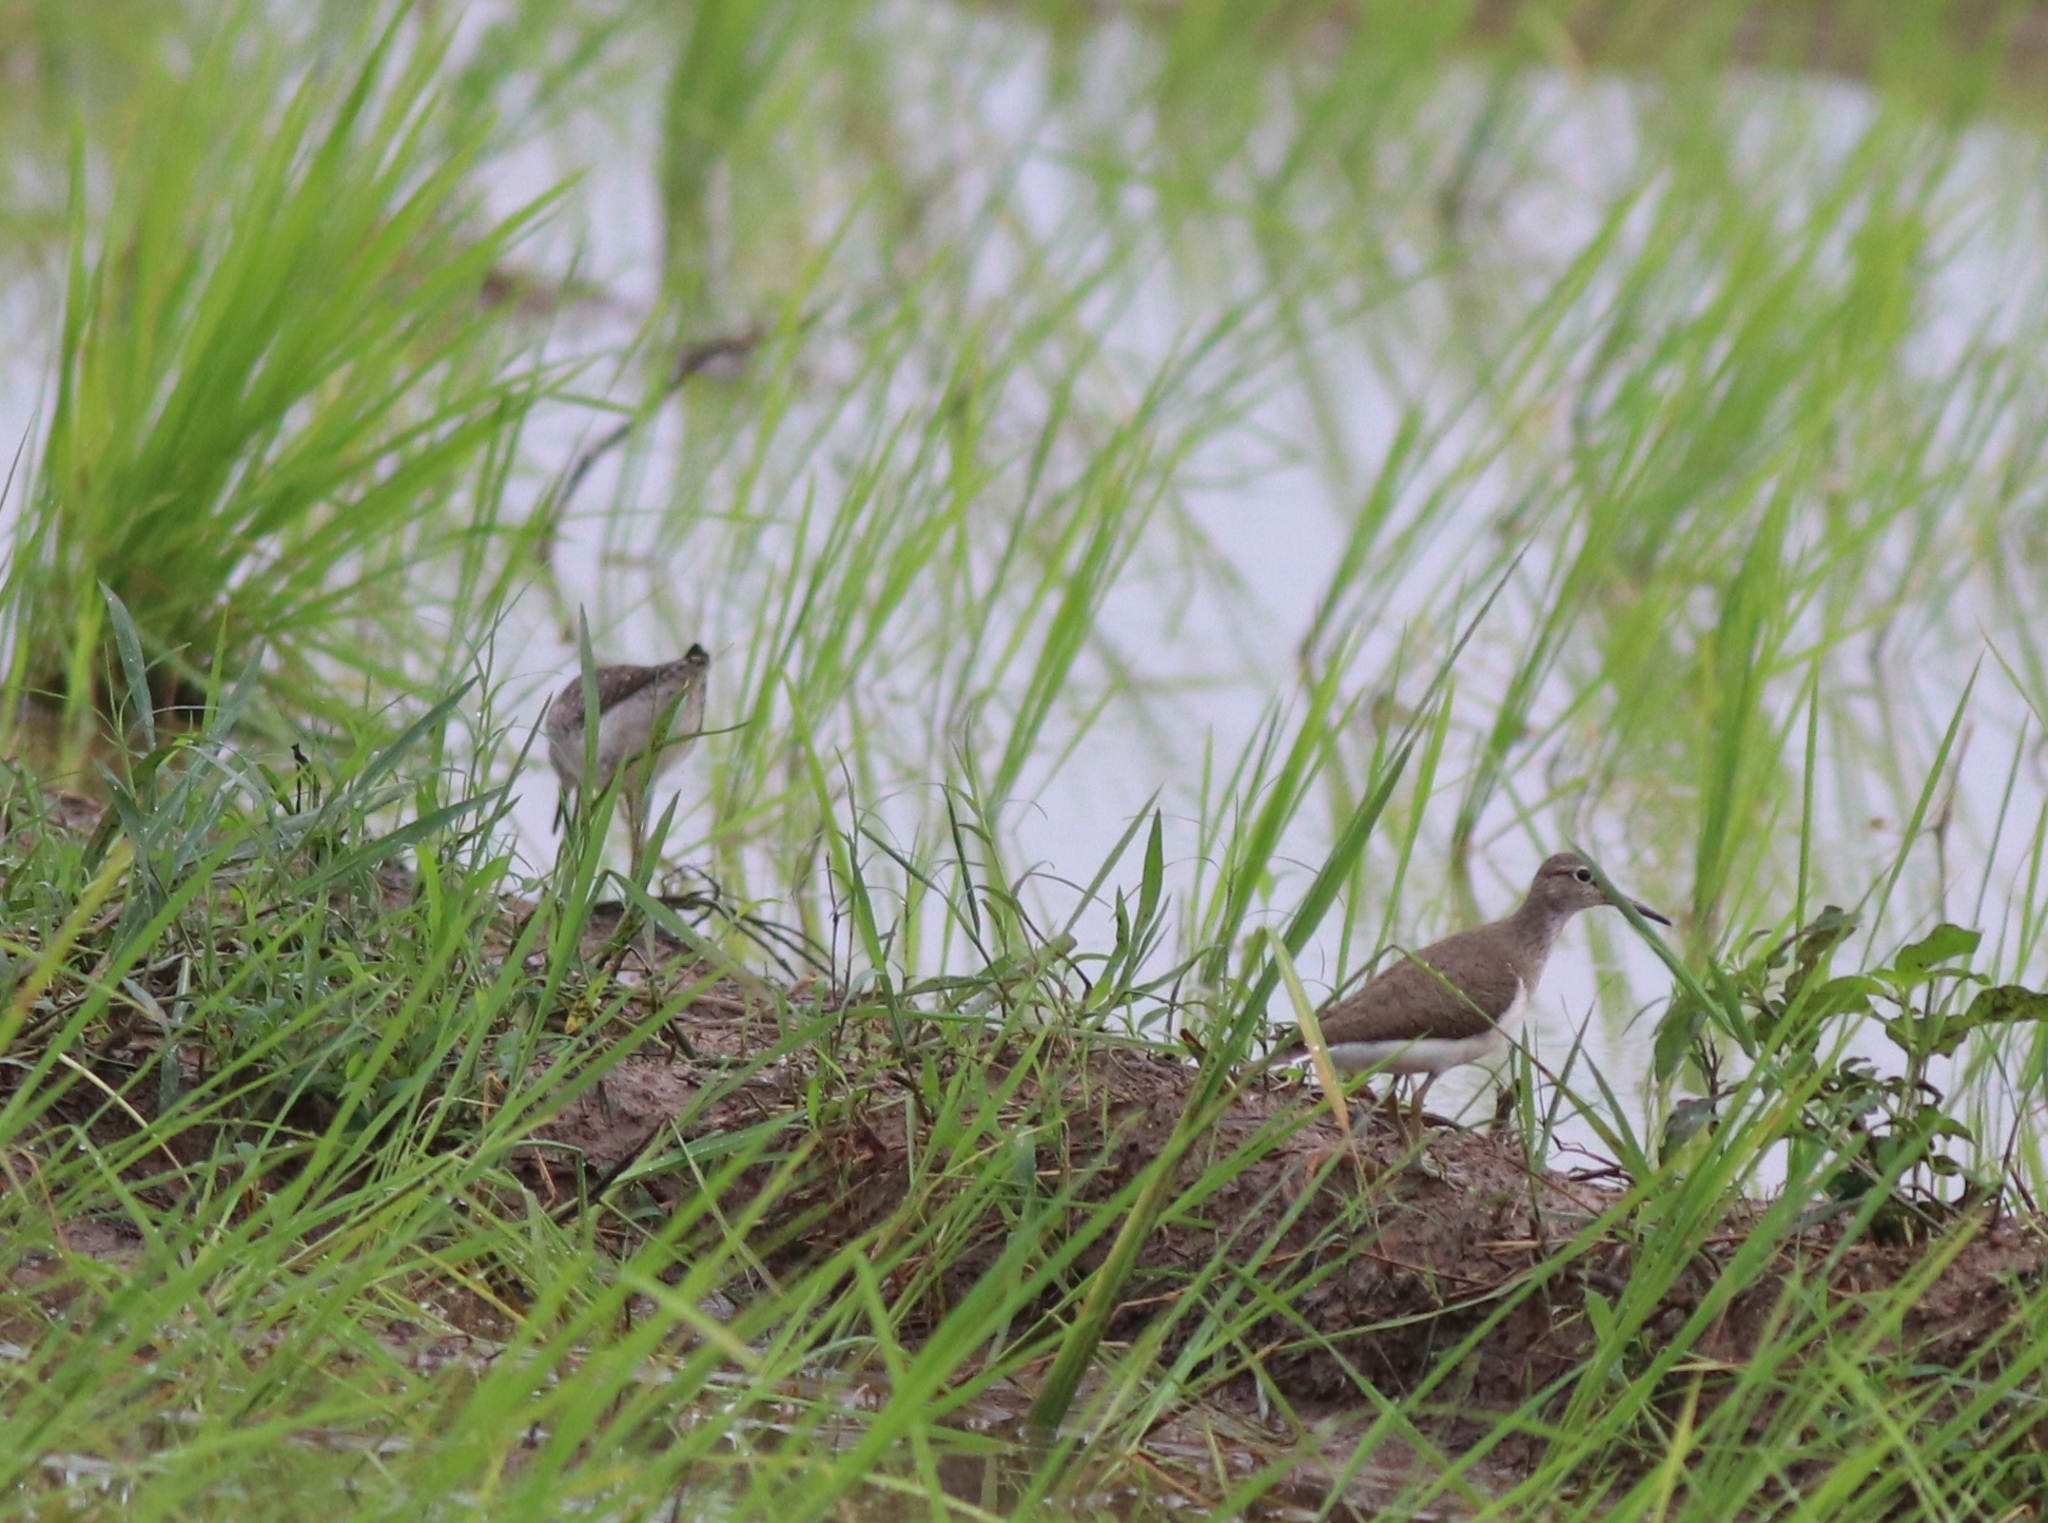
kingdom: Animalia
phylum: Chordata
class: Aves
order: Charadriiformes
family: Scolopacidae
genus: Actitis
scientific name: Actitis hypoleucos
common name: Common sandpiper
